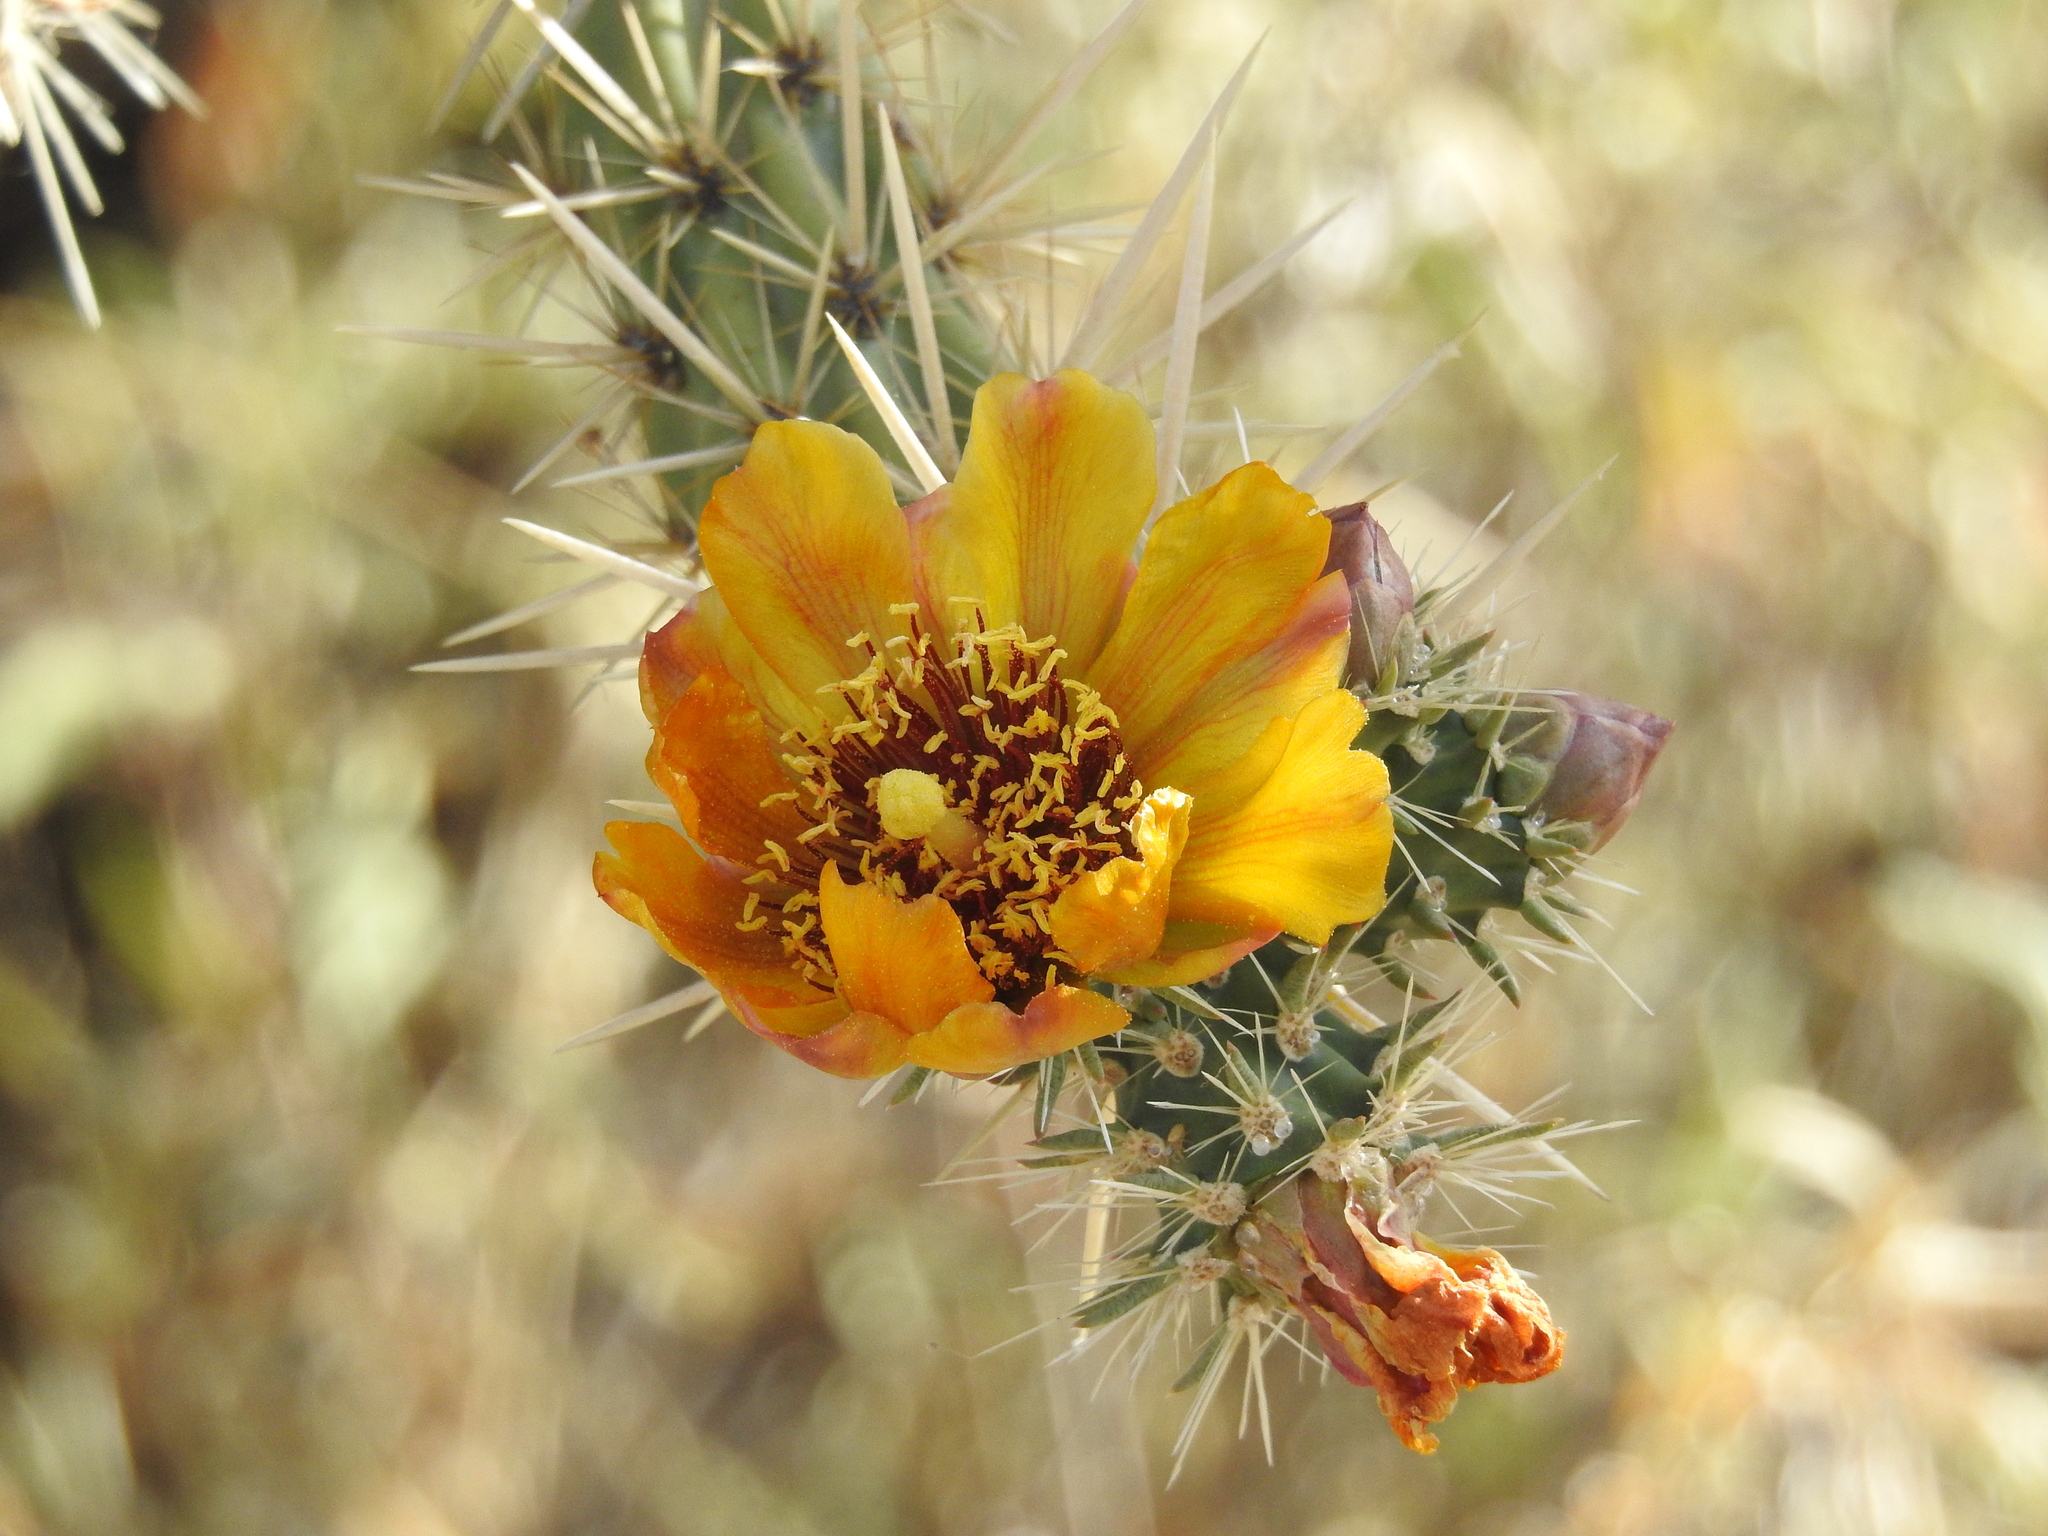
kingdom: Plantae
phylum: Tracheophyta
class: Magnoliopsida
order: Caryophyllales
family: Cactaceae
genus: Cylindropuntia
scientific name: Cylindropuntia acanthocarpa
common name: Buckhorn cholla
